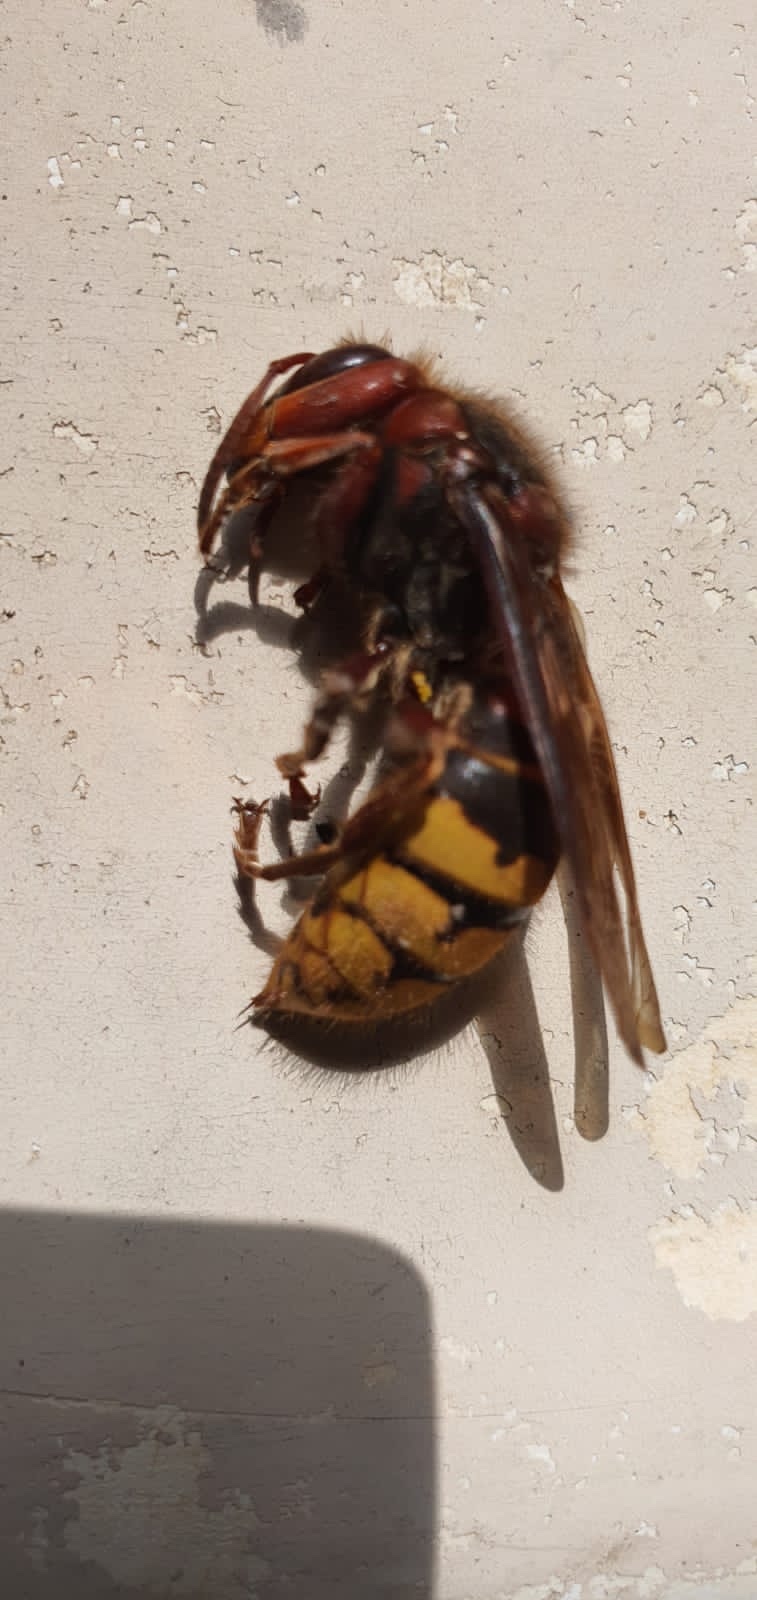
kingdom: Animalia
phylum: Arthropoda
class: Insecta
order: Hymenoptera
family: Vespidae
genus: Vespa
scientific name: Vespa crabro
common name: Hornet
